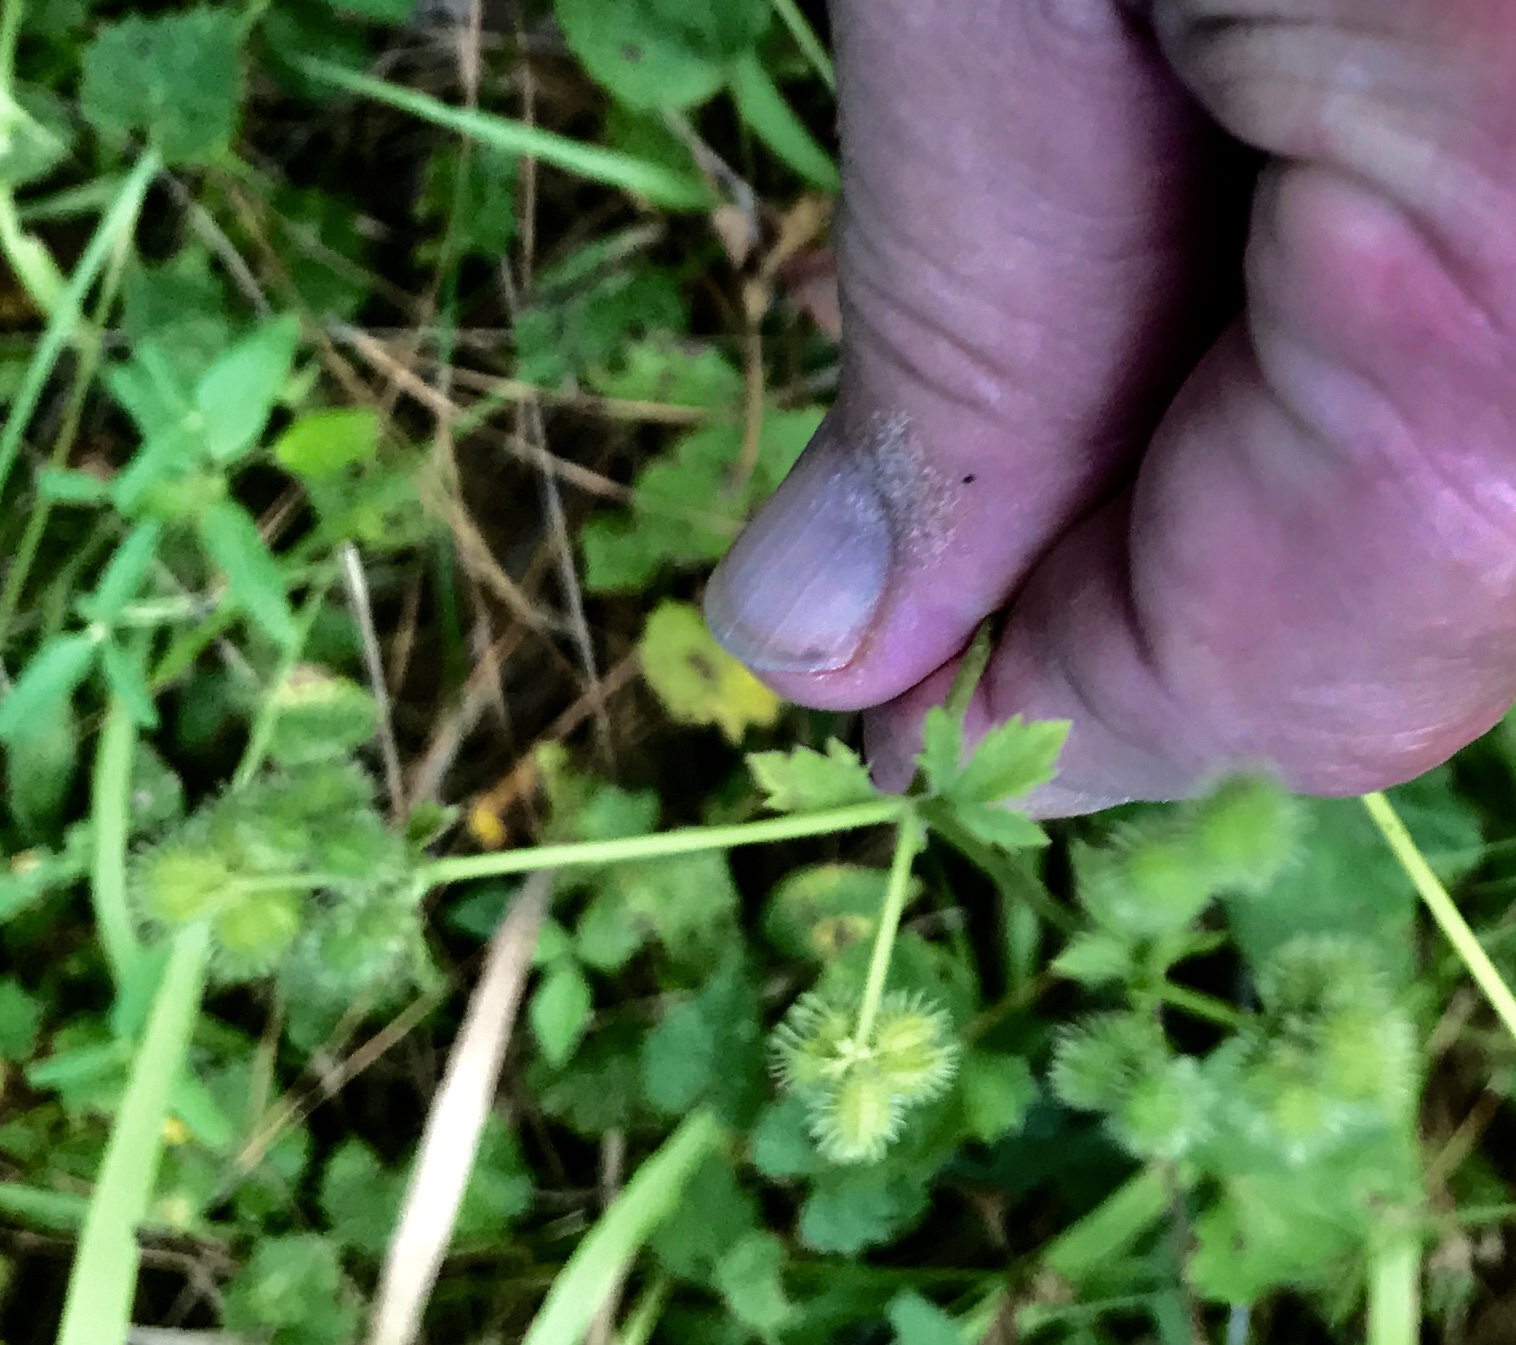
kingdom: Plantae
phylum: Tracheophyta
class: Magnoliopsida
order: Apiales
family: Apiaceae
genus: Sanicula
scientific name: Sanicula canadensis
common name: Canada sanicle
